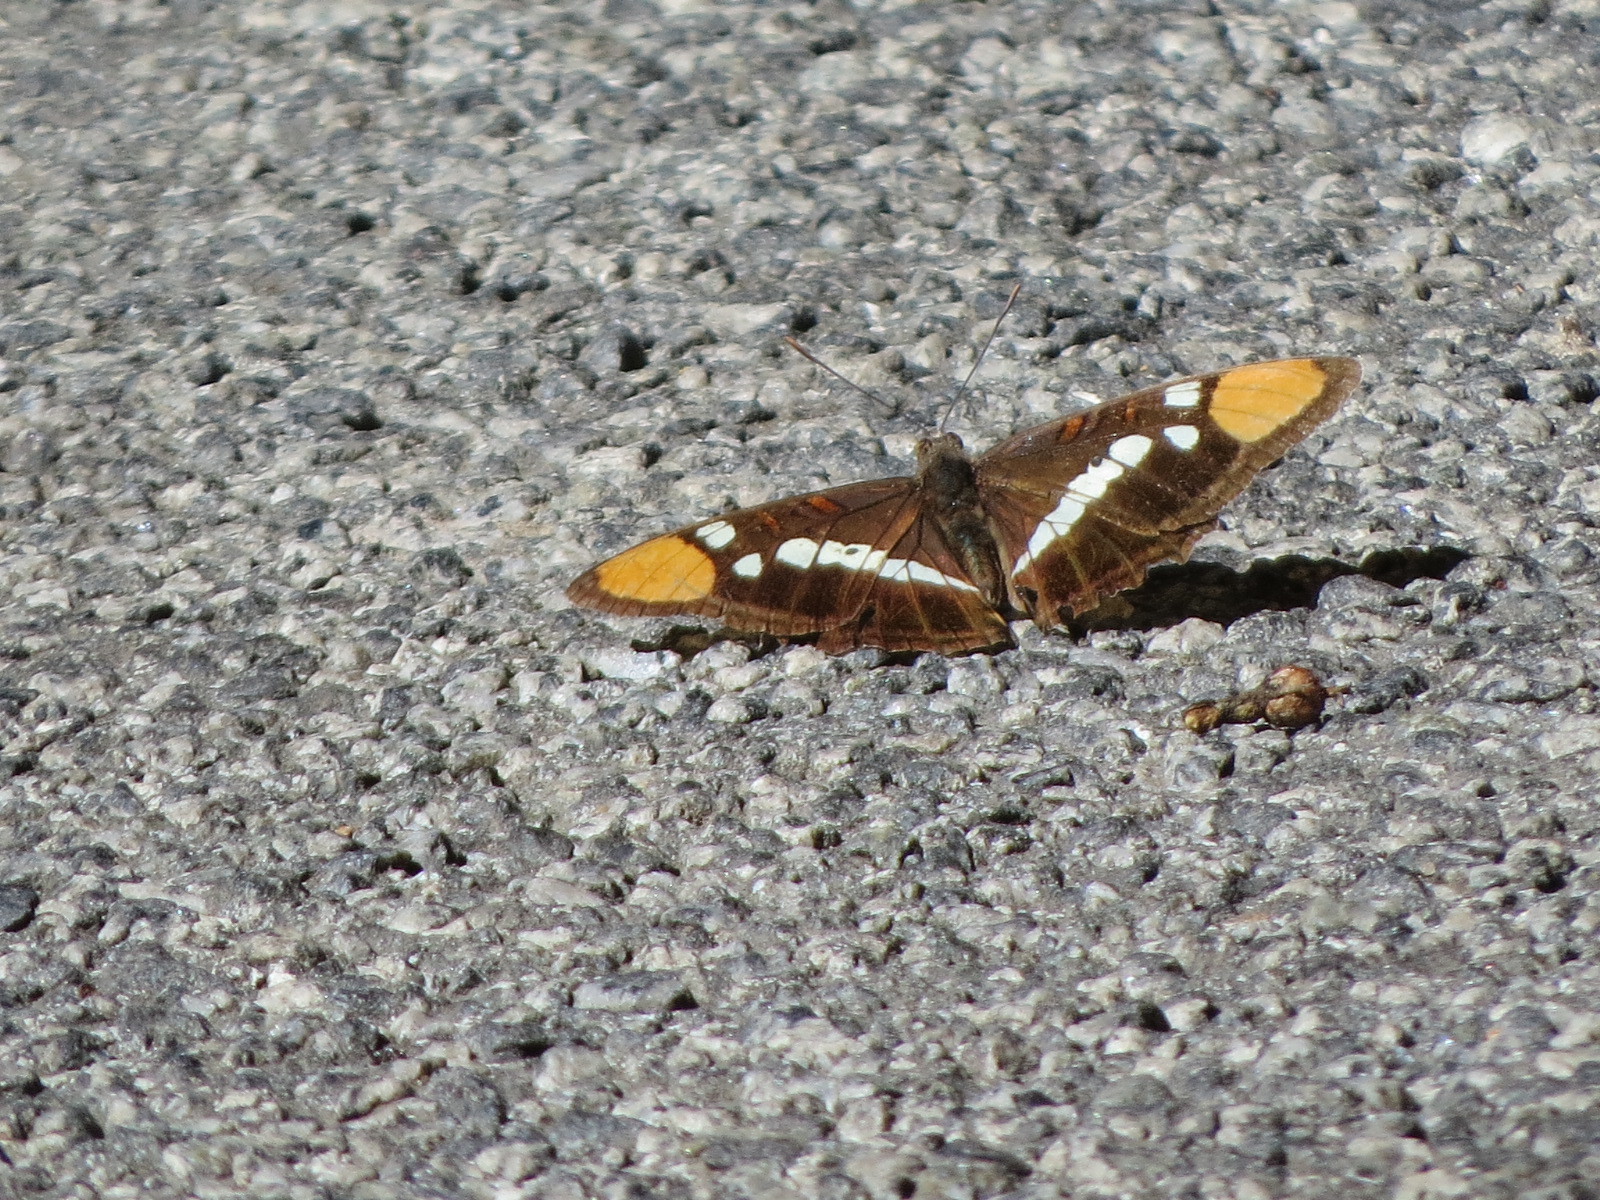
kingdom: Animalia
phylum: Arthropoda
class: Insecta
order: Lepidoptera
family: Nymphalidae
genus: Limenitis
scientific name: Limenitis bredowii
